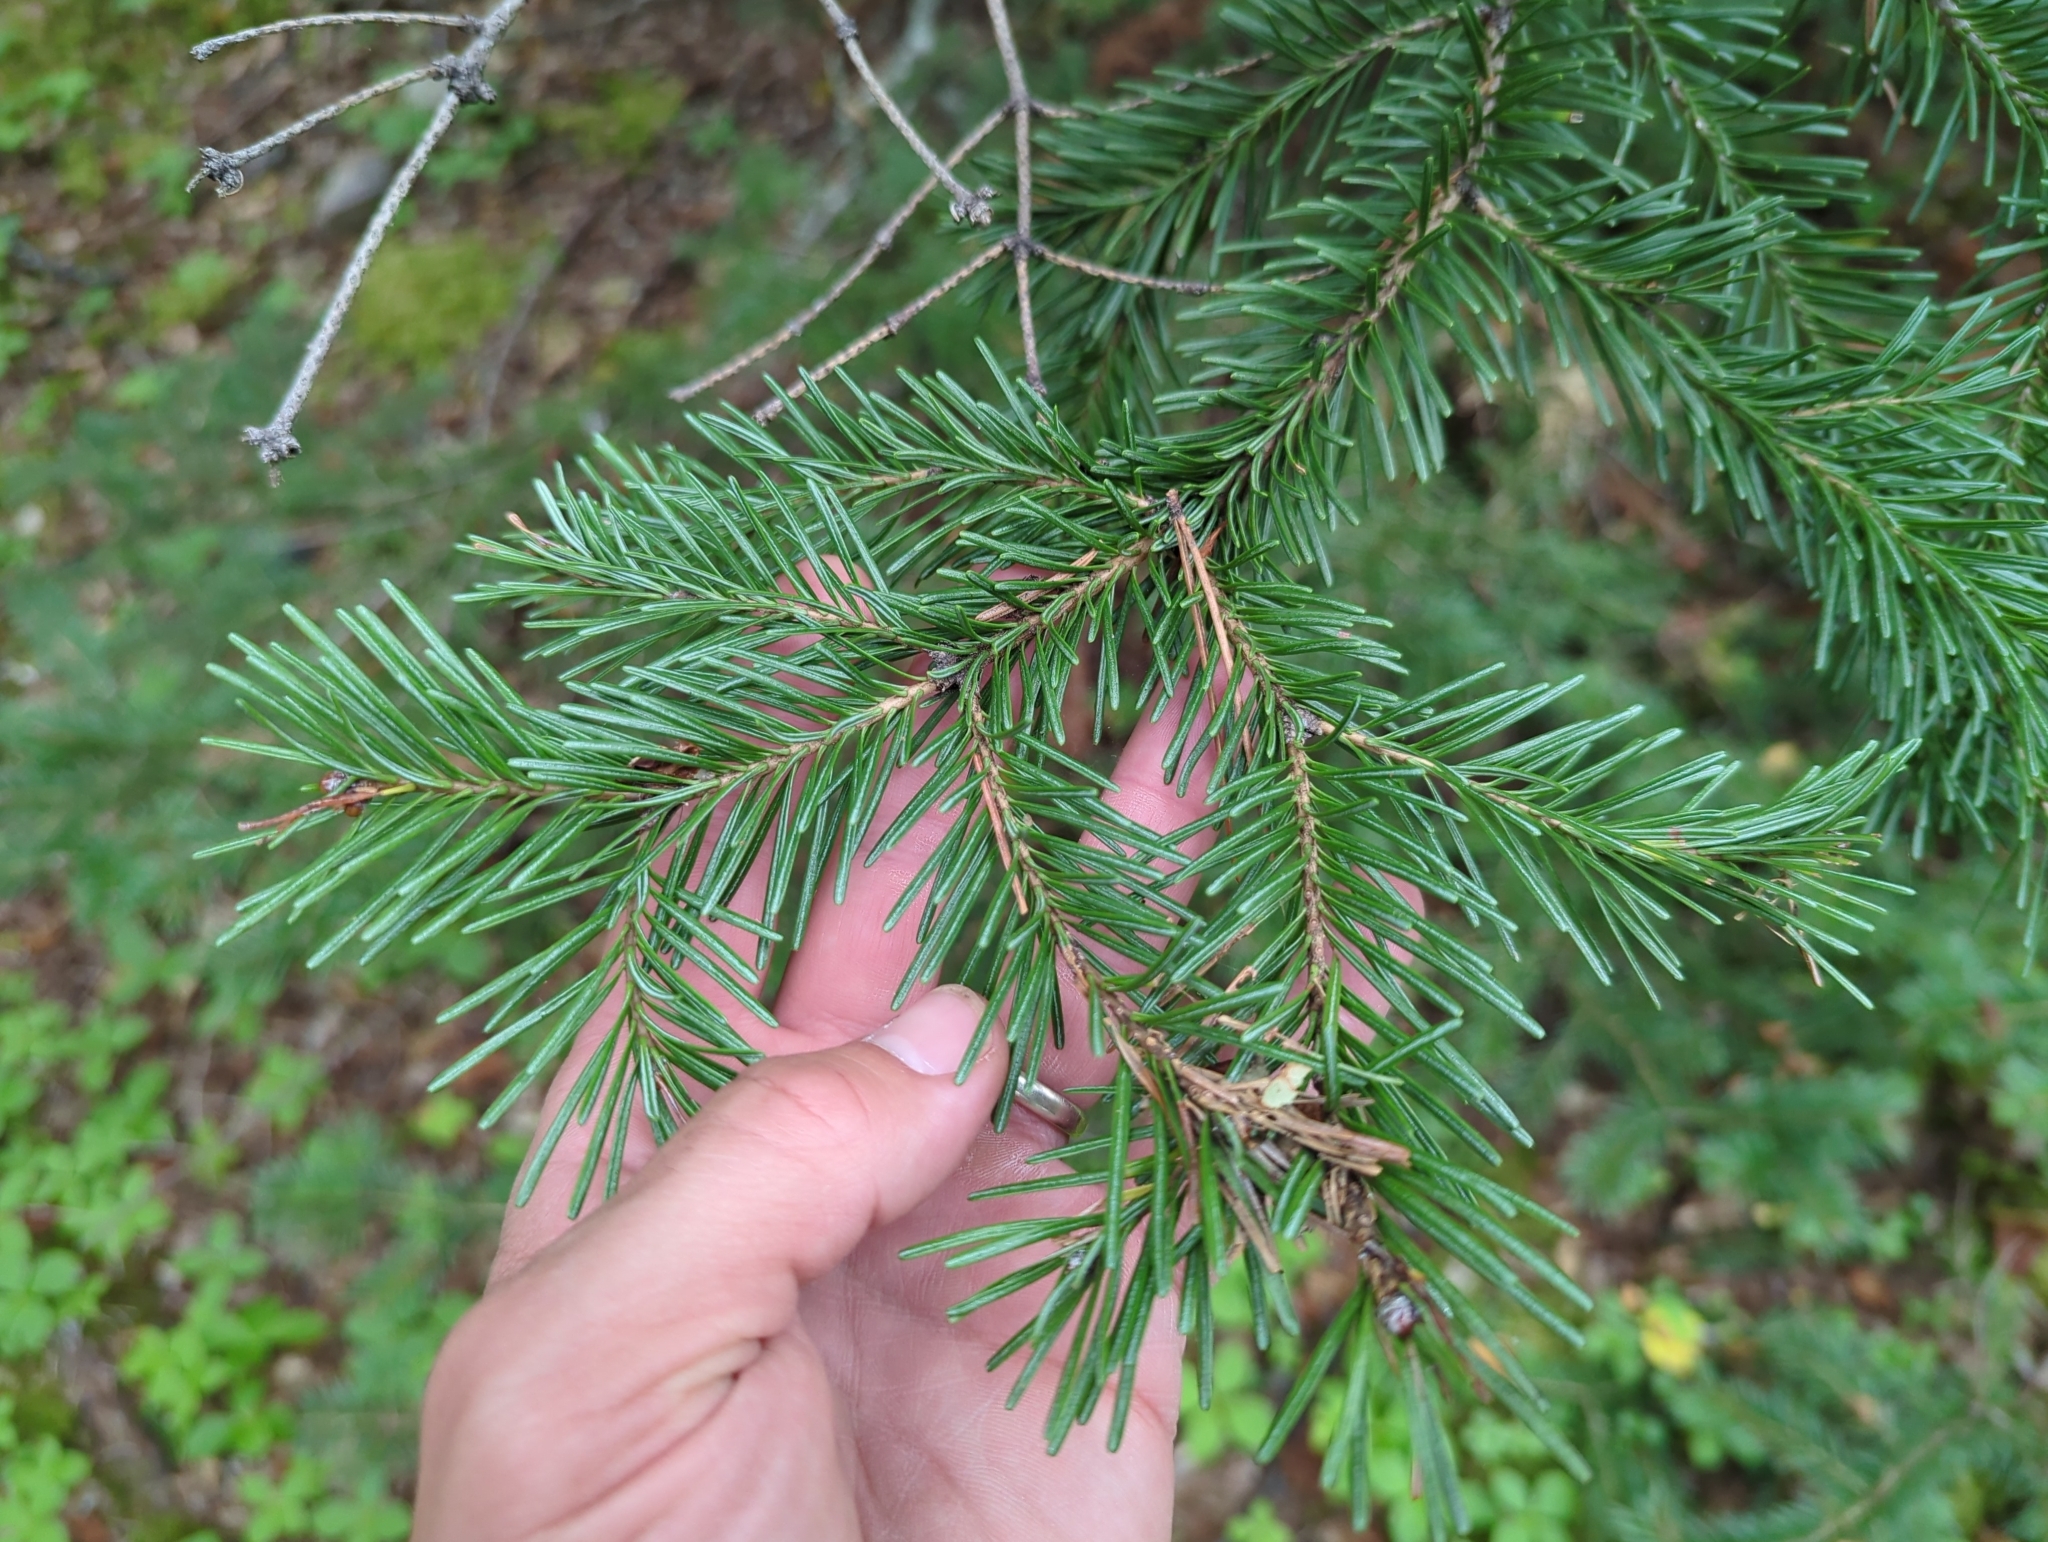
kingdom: Plantae
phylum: Tracheophyta
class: Pinopsida
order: Pinales
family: Pinaceae
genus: Abies
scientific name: Abies lasiocarpa
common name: Subalpine fir
